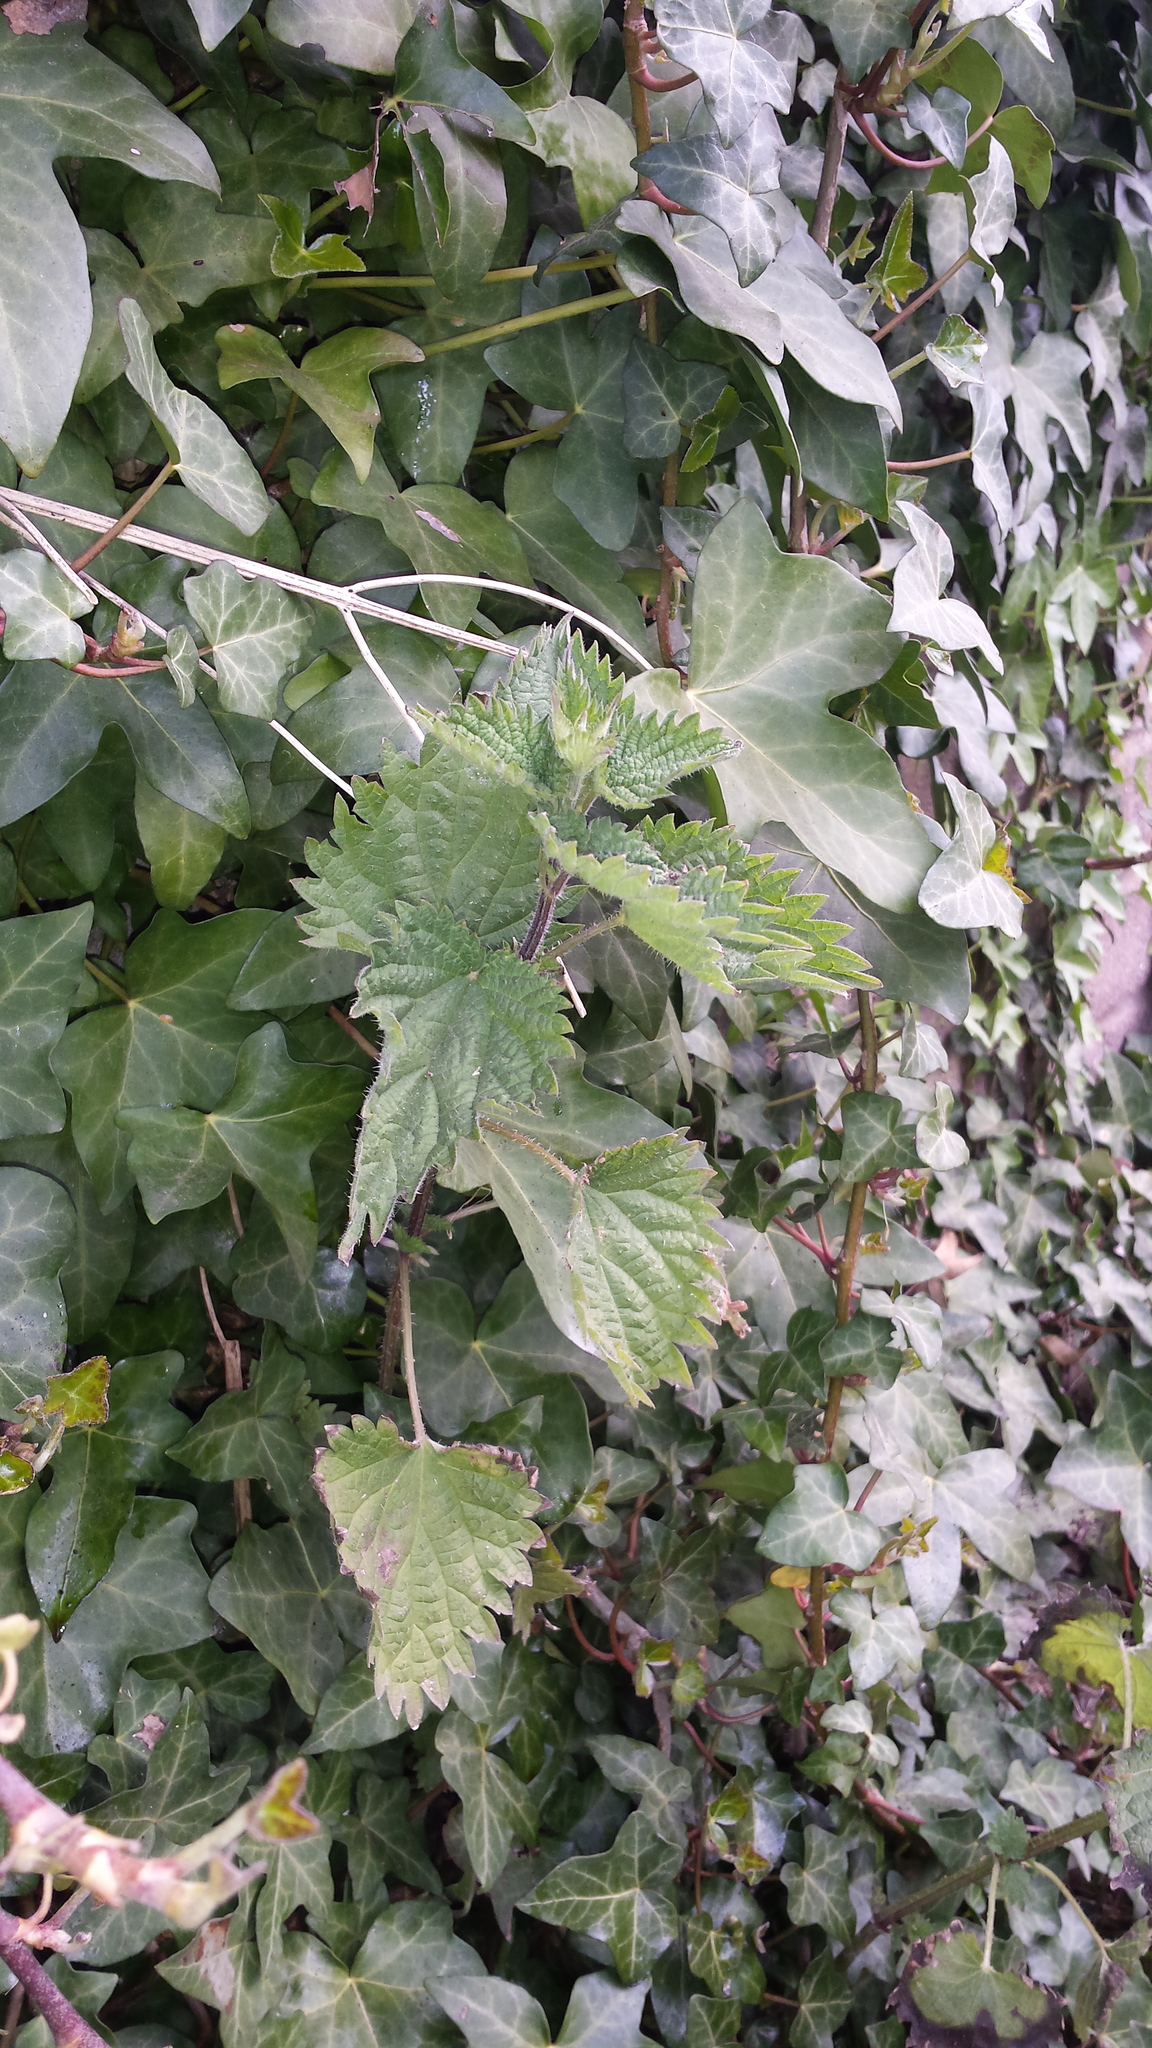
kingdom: Plantae
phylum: Tracheophyta
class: Magnoliopsida
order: Rosales
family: Urticaceae
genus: Urtica
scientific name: Urtica dioica
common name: Common nettle
